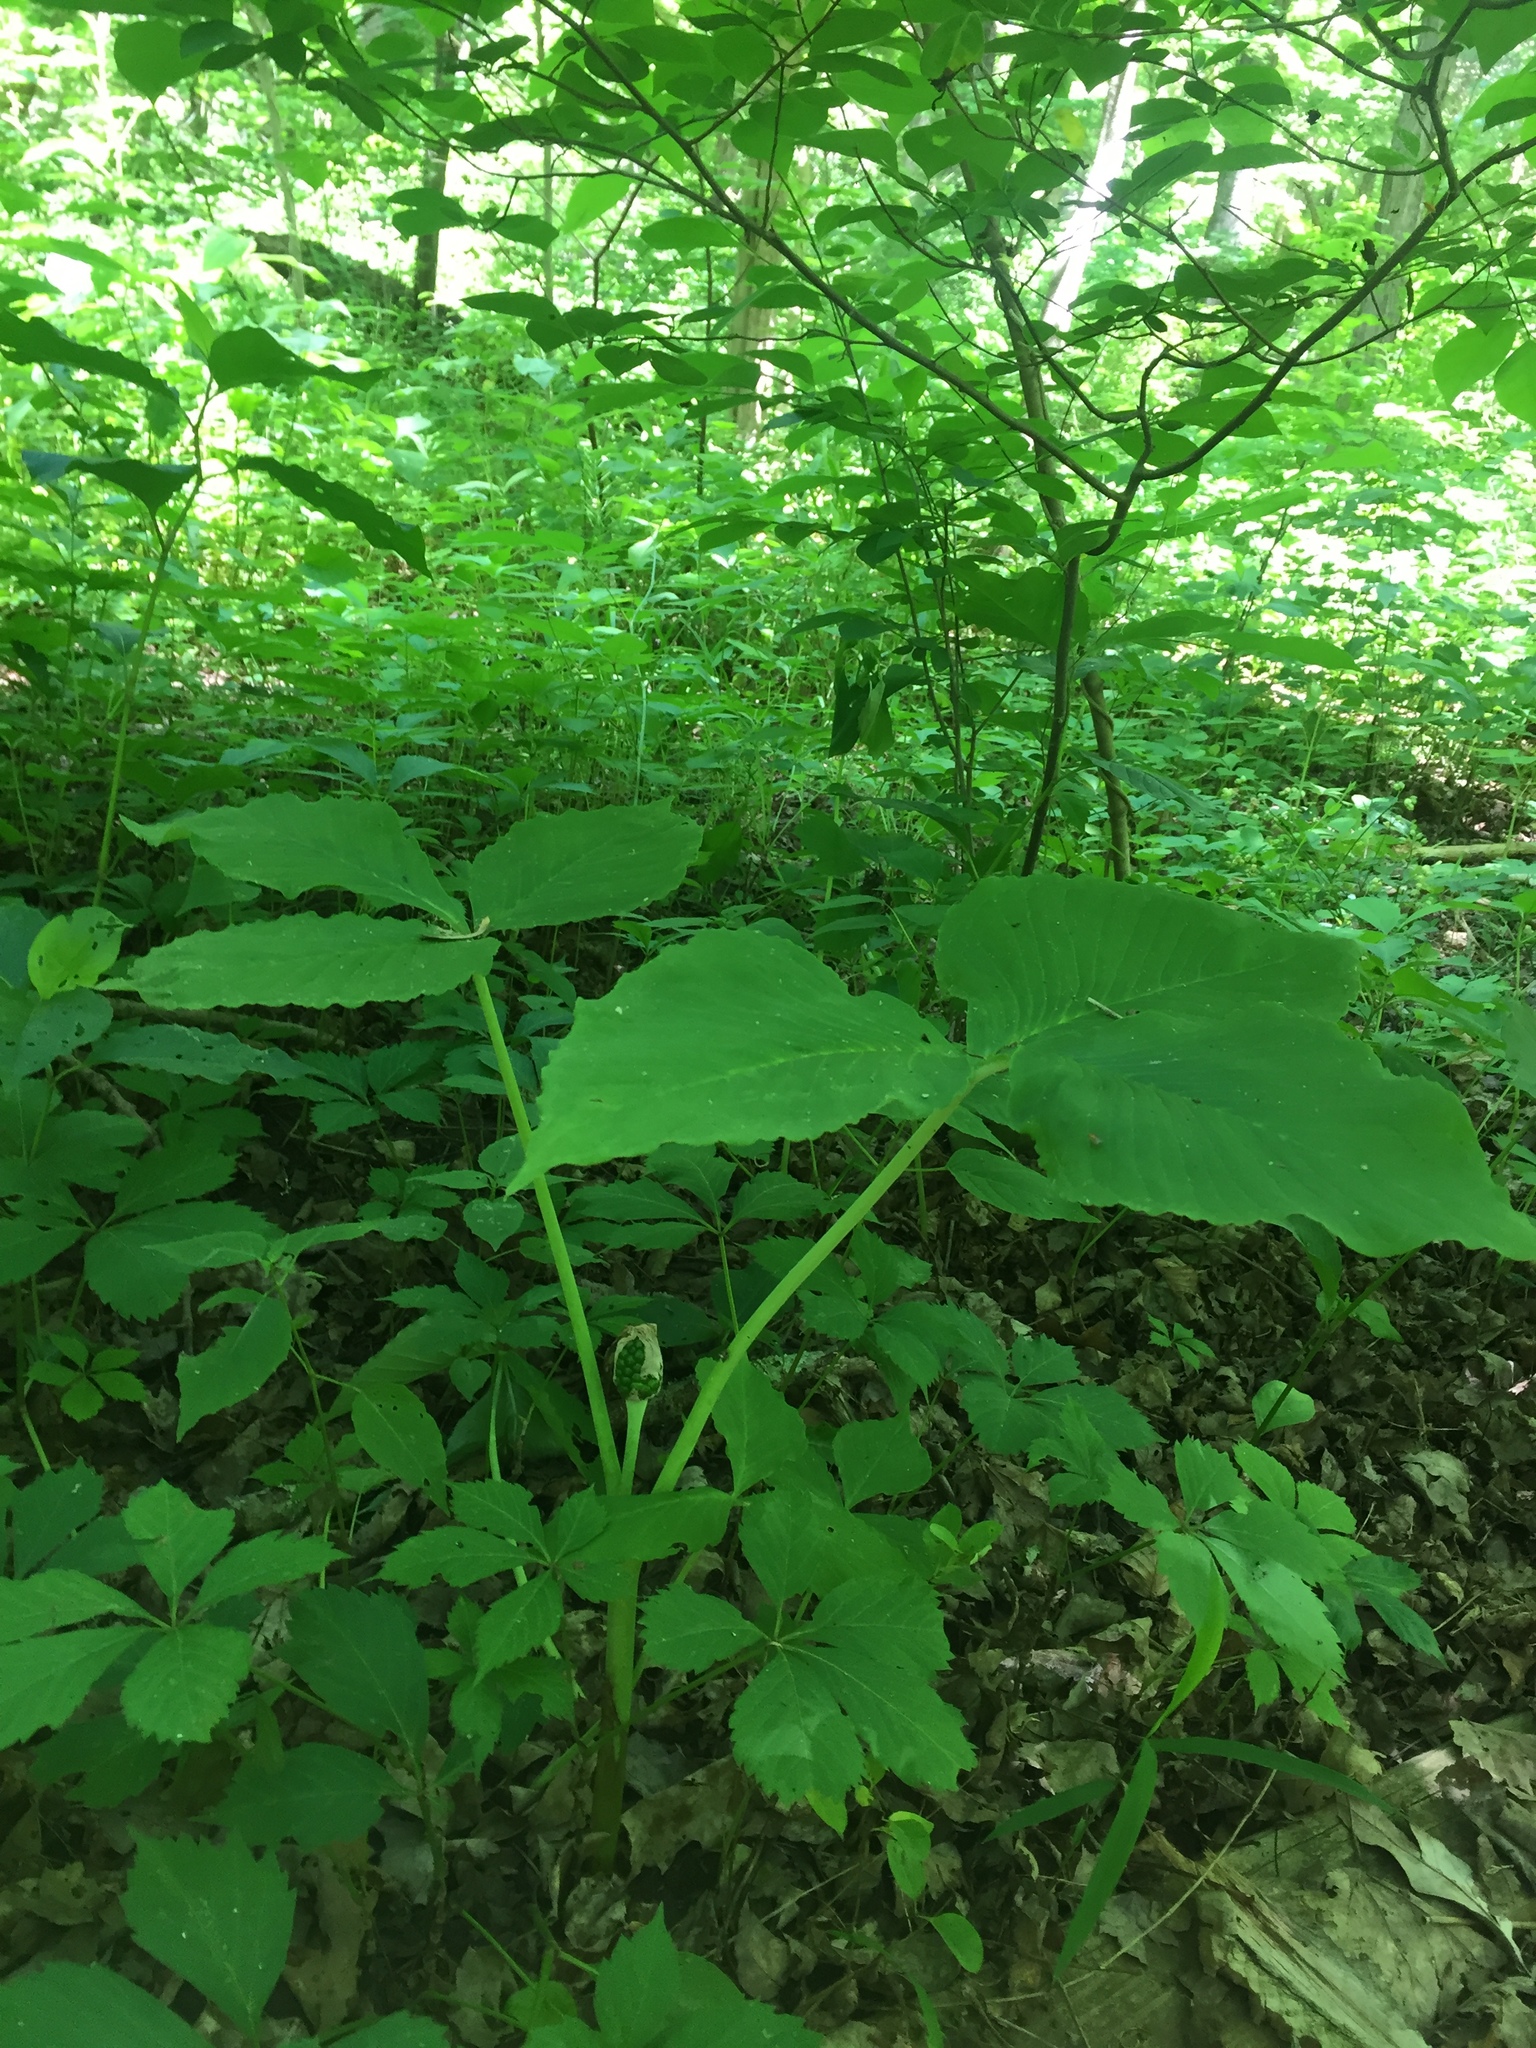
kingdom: Plantae
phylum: Tracheophyta
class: Liliopsida
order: Alismatales
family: Araceae
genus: Arisaema
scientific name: Arisaema triphyllum
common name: Jack-in-the-pulpit
